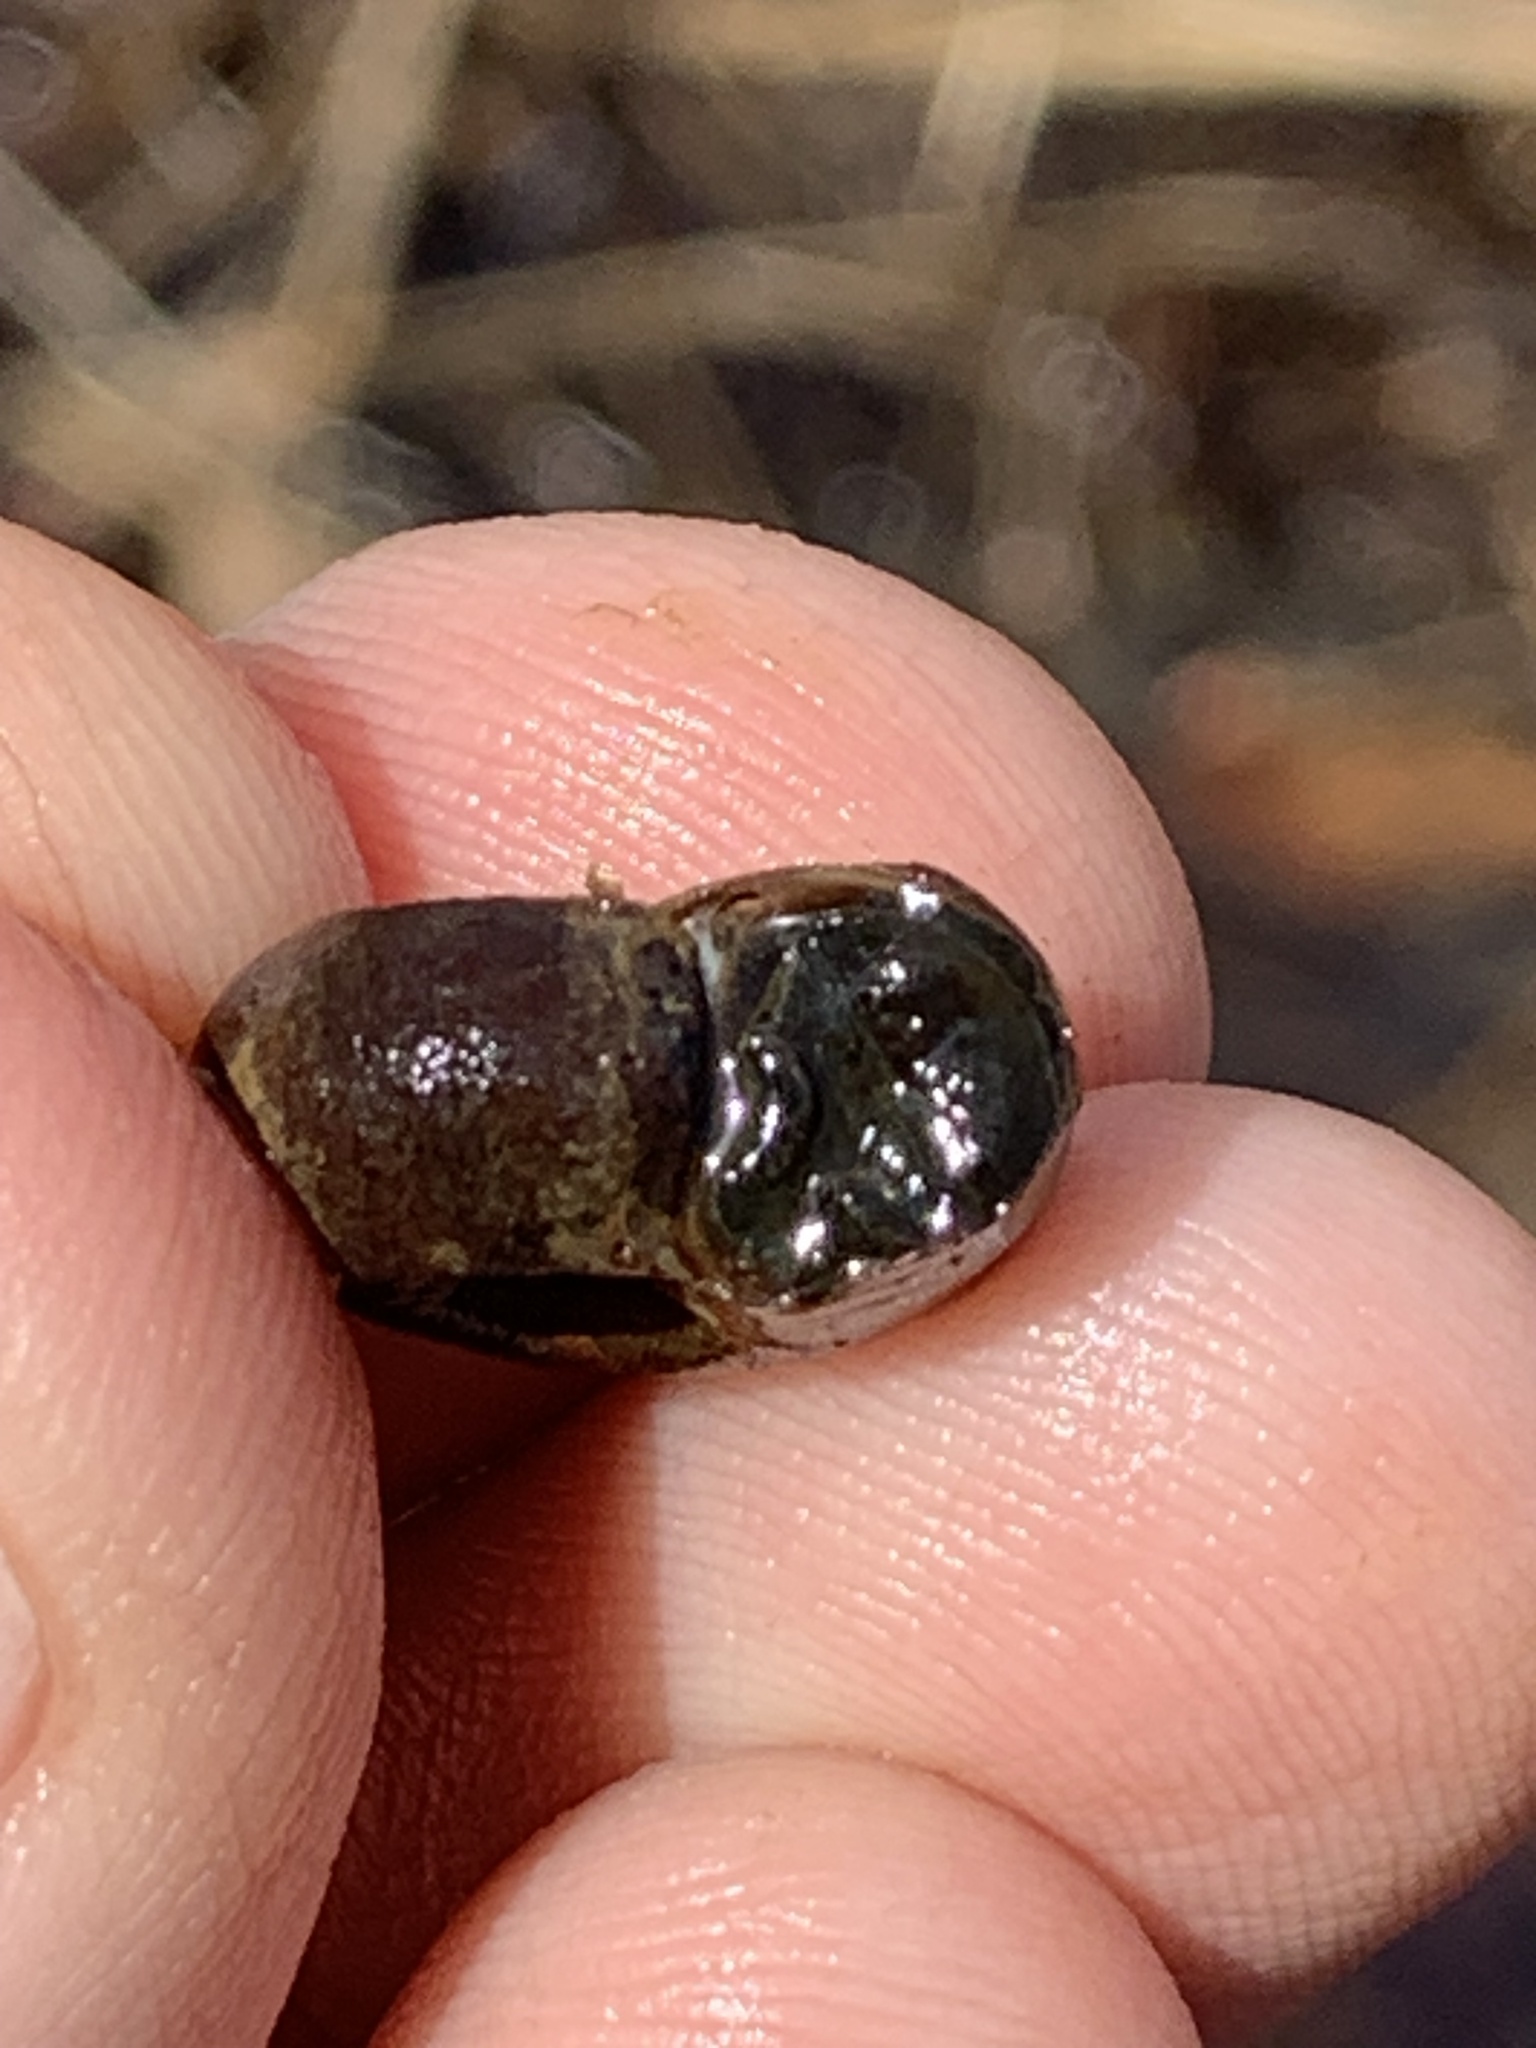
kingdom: Animalia
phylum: Mollusca
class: Gastropoda
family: Planorbidae
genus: Planorbella
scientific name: Planorbella trivolvis
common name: Marsh rams-horn
